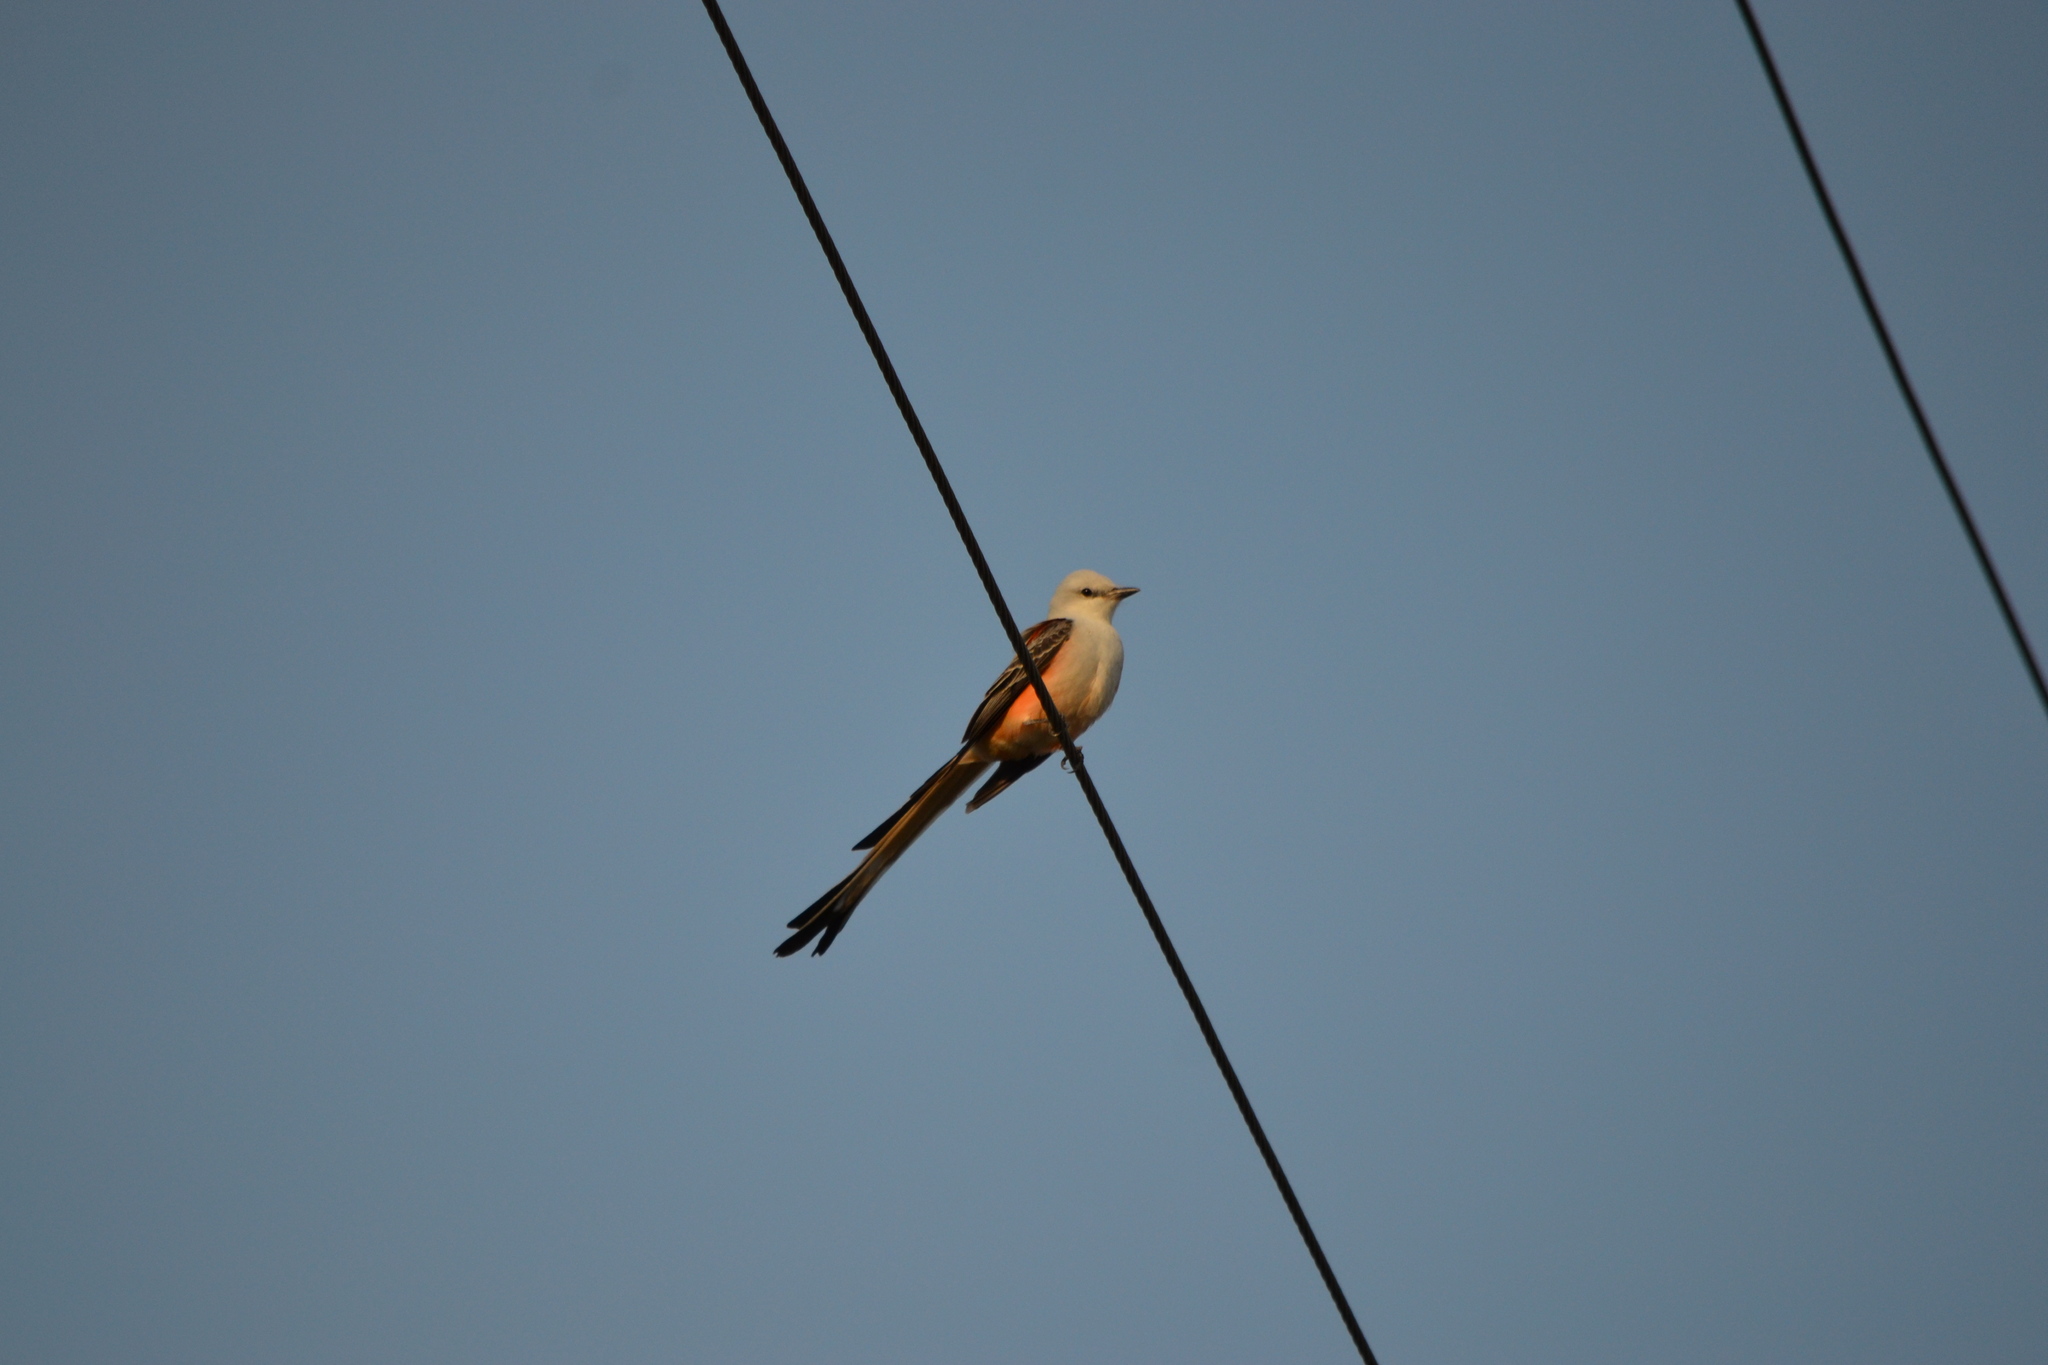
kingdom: Animalia
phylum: Chordata
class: Aves
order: Passeriformes
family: Tyrannidae
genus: Tyrannus
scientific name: Tyrannus forficatus
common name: Scissor-tailed flycatcher
